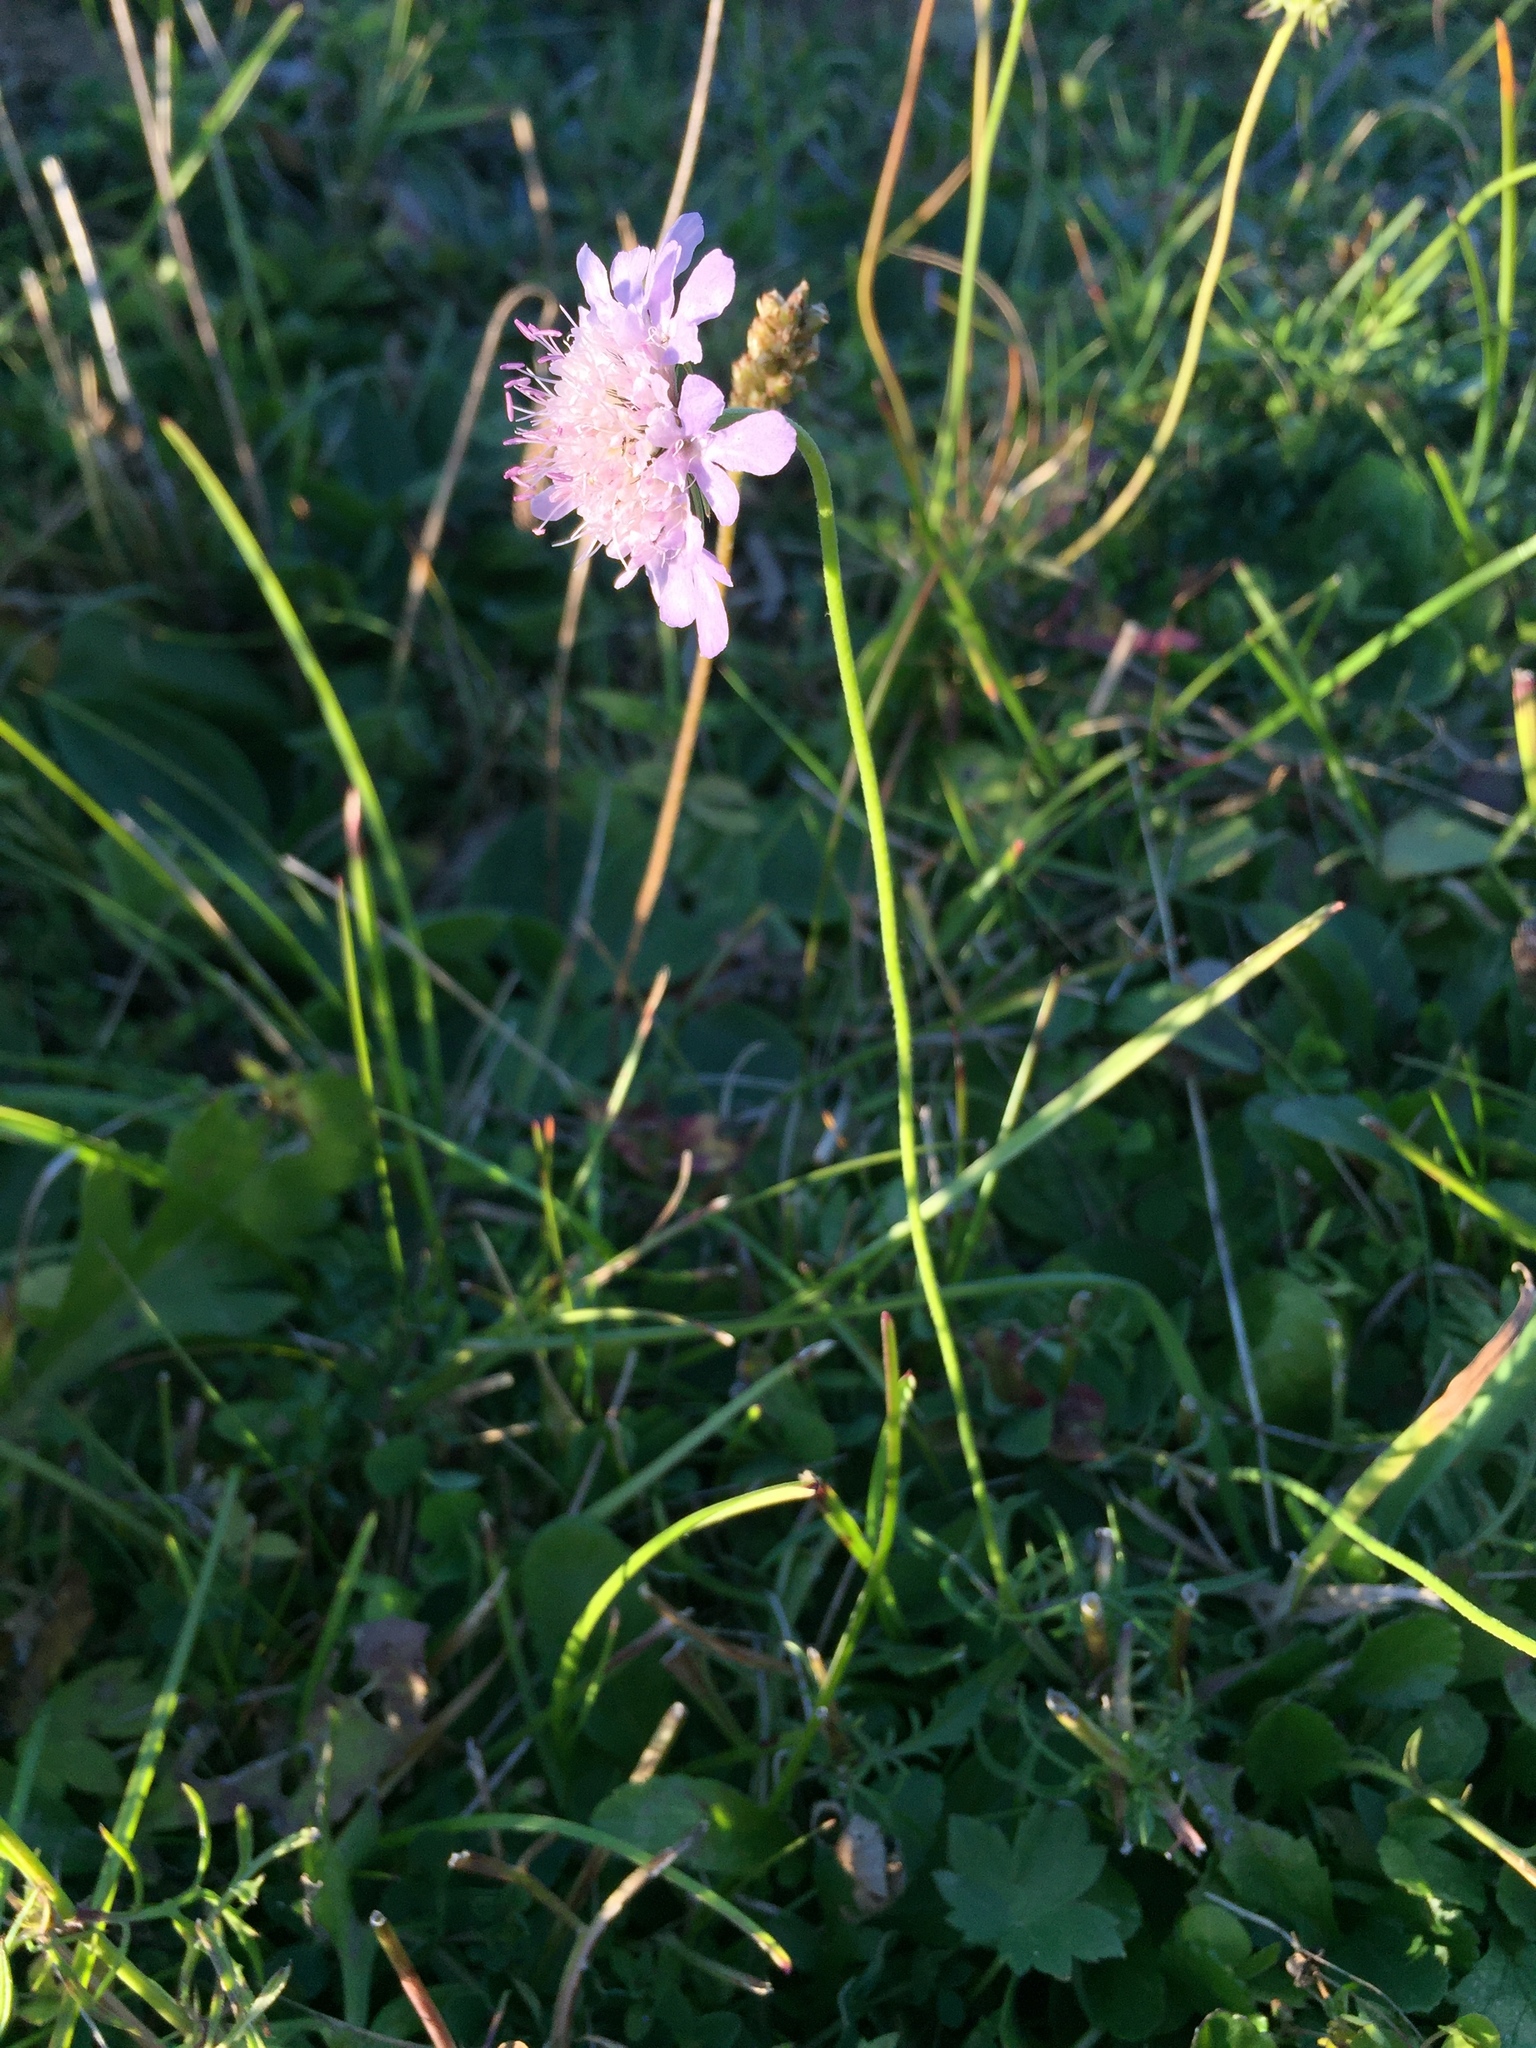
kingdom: Plantae
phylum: Tracheophyta
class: Magnoliopsida
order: Dipsacales
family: Caprifoliaceae
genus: Scabiosa
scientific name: Scabiosa lucida
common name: Shining scabious
